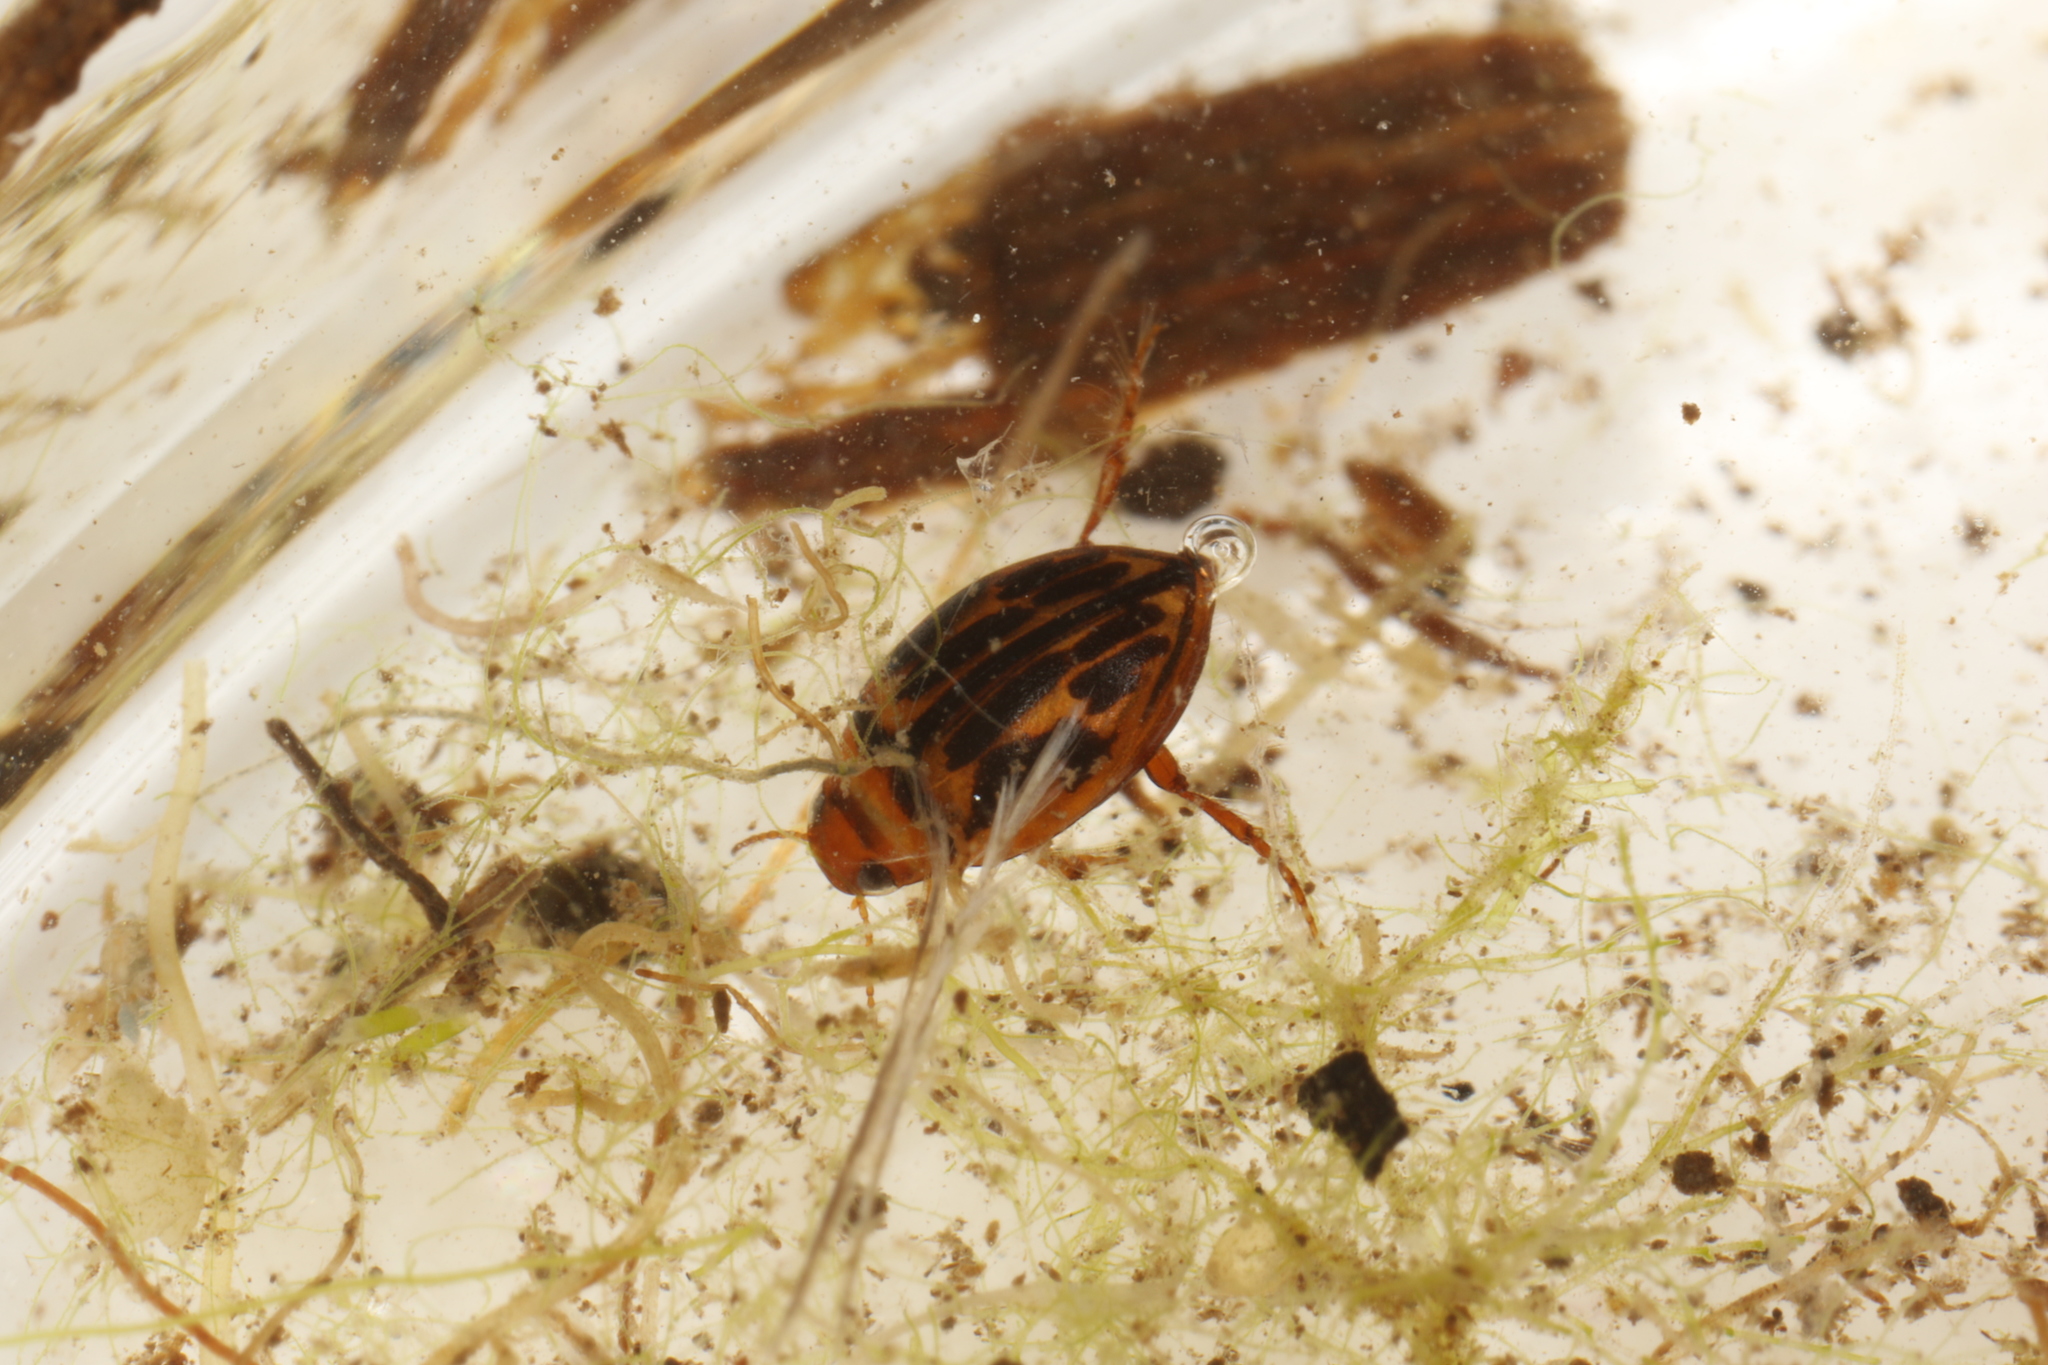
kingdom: Animalia
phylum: Arthropoda
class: Insecta
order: Coleoptera
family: Dytiscidae
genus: Hygrotus
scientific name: Hygrotus versicolor
